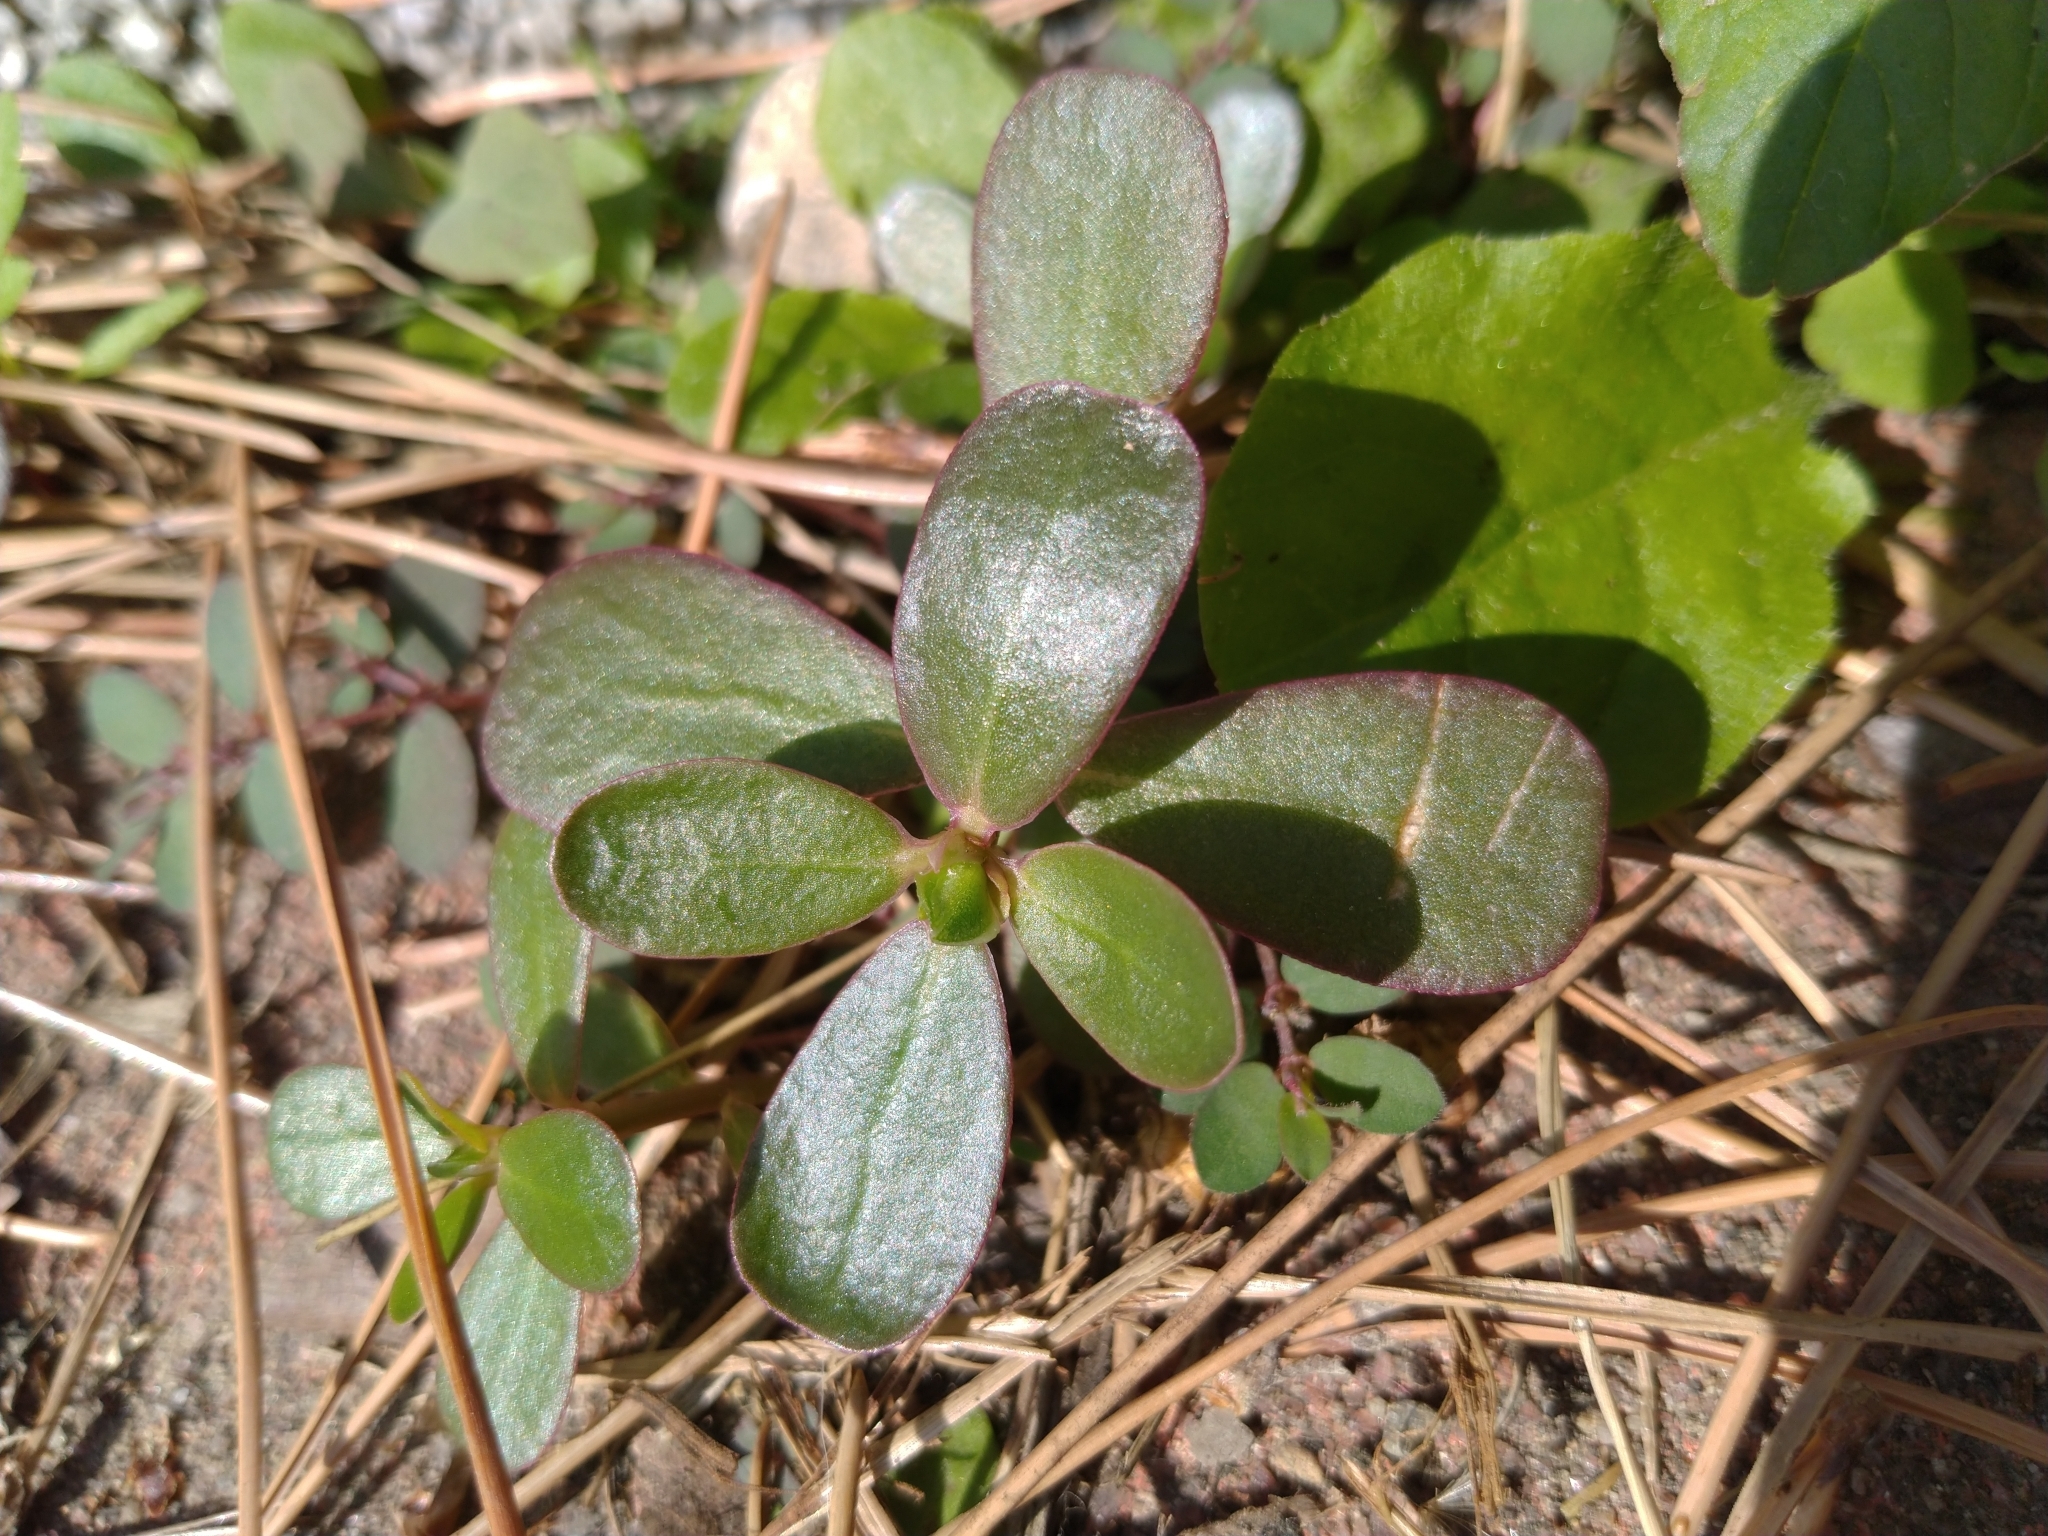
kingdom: Plantae
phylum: Tracheophyta
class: Magnoliopsida
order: Caryophyllales
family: Portulacaceae
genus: Portulaca
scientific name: Portulaca oleracea
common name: Common purslane
